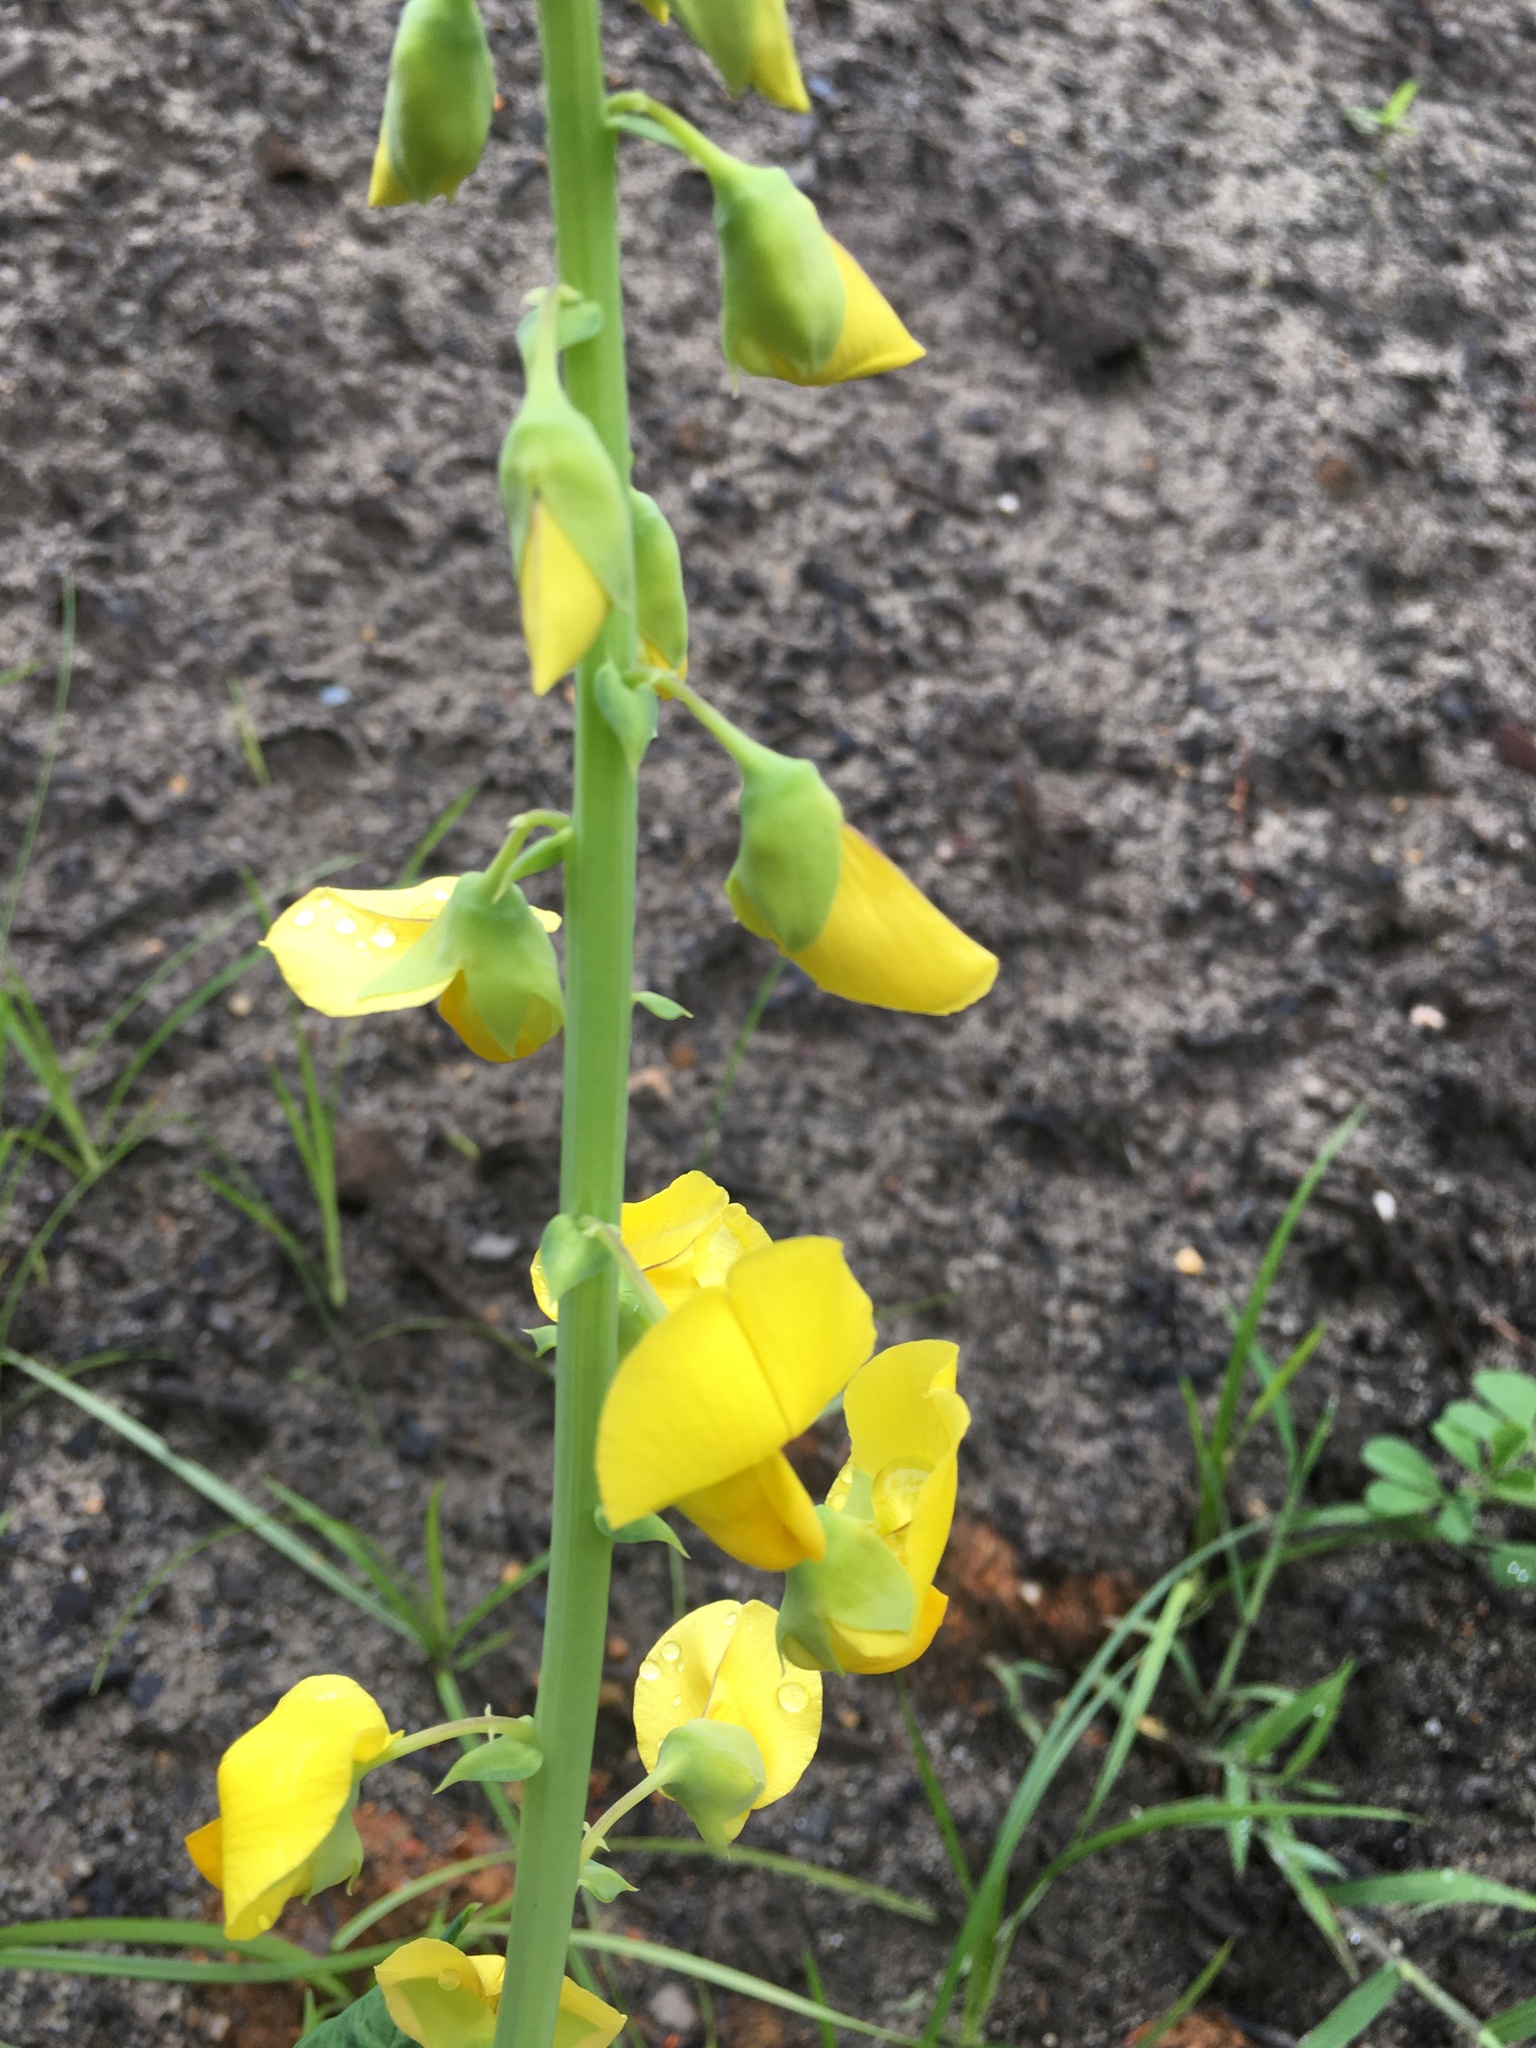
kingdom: Plantae
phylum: Tracheophyta
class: Magnoliopsida
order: Fabales
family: Fabaceae
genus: Crotalaria
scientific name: Crotalaria spectabilis
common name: Showy rattlebox
